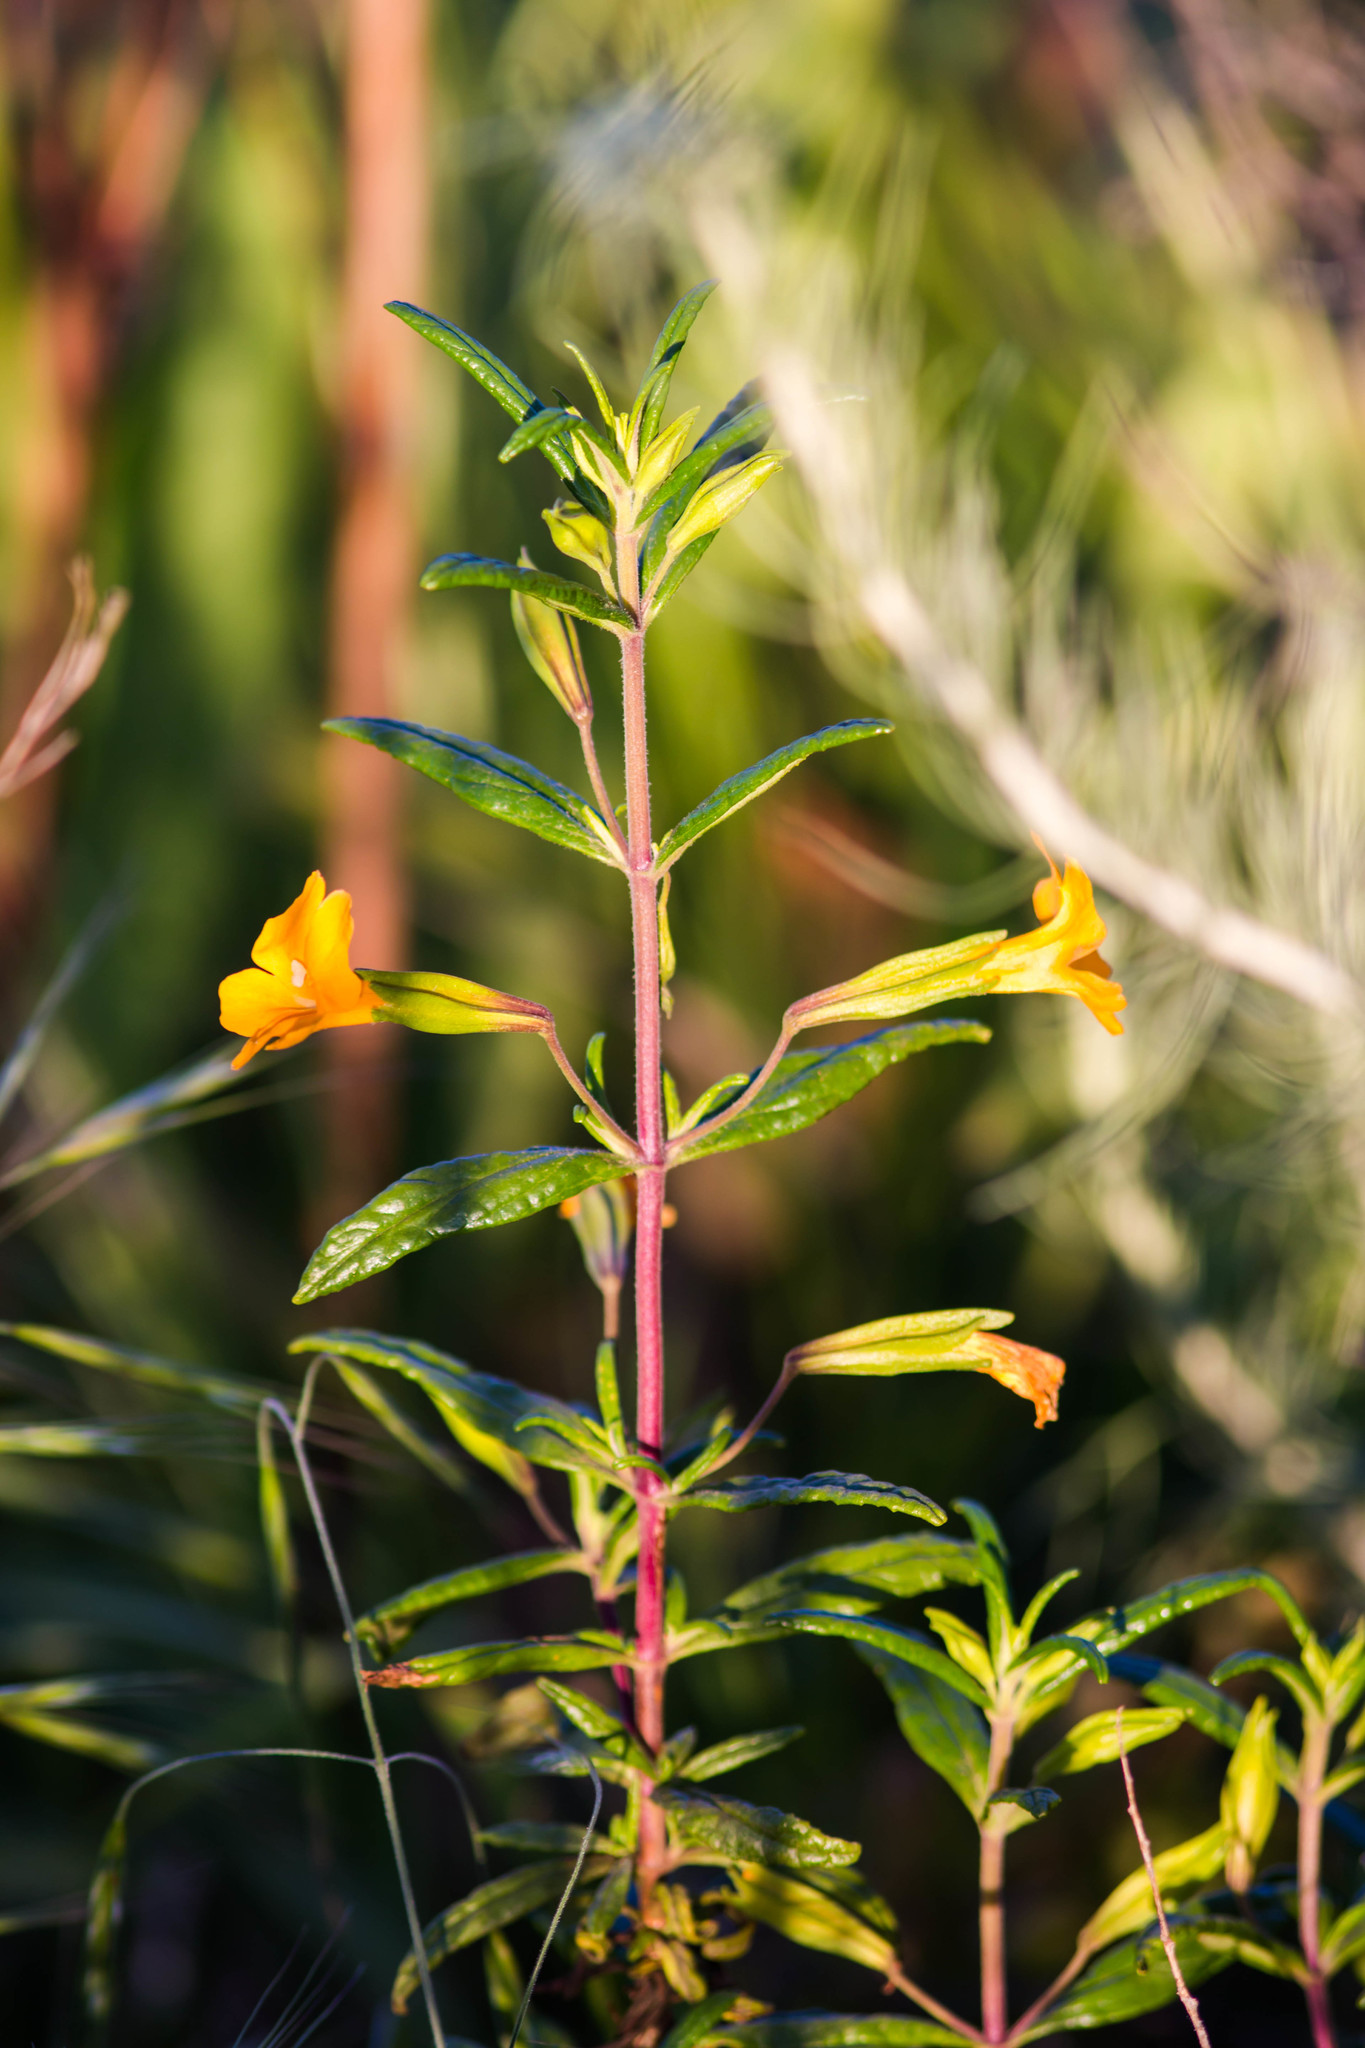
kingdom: Plantae
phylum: Tracheophyta
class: Magnoliopsida
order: Lamiales
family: Phrymaceae
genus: Diplacus
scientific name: Diplacus aurantiacus
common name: Bush monkey-flower
